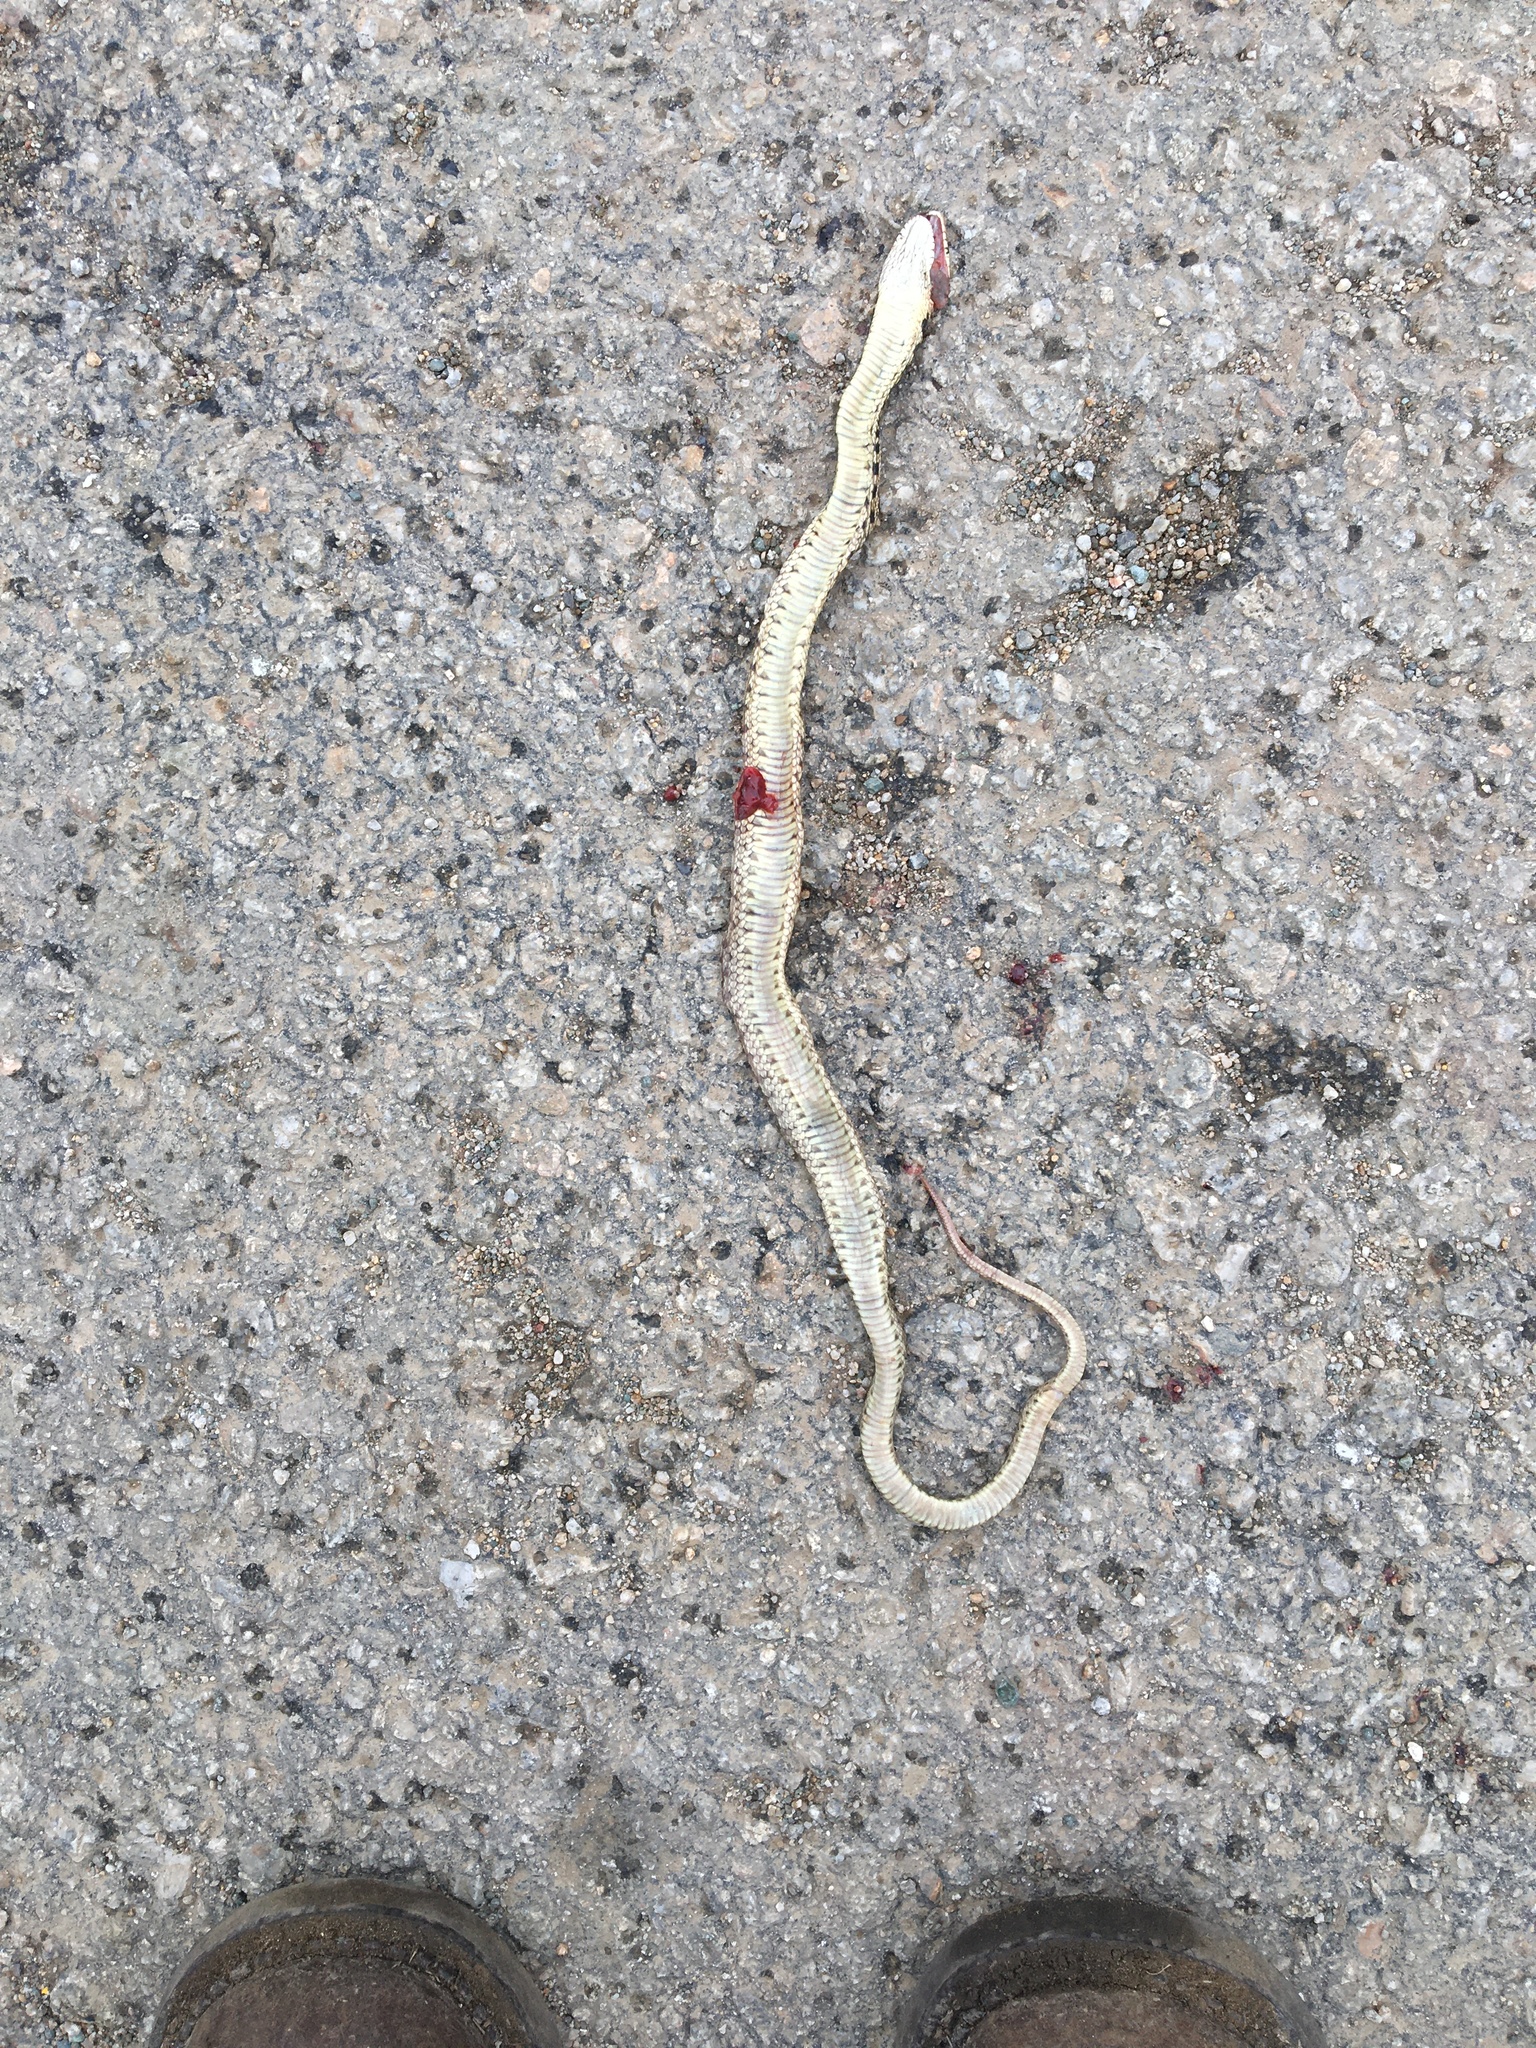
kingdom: Animalia
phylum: Chordata
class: Squamata
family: Colubridae
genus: Pituophis
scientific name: Pituophis catenifer
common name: Gopher snake
